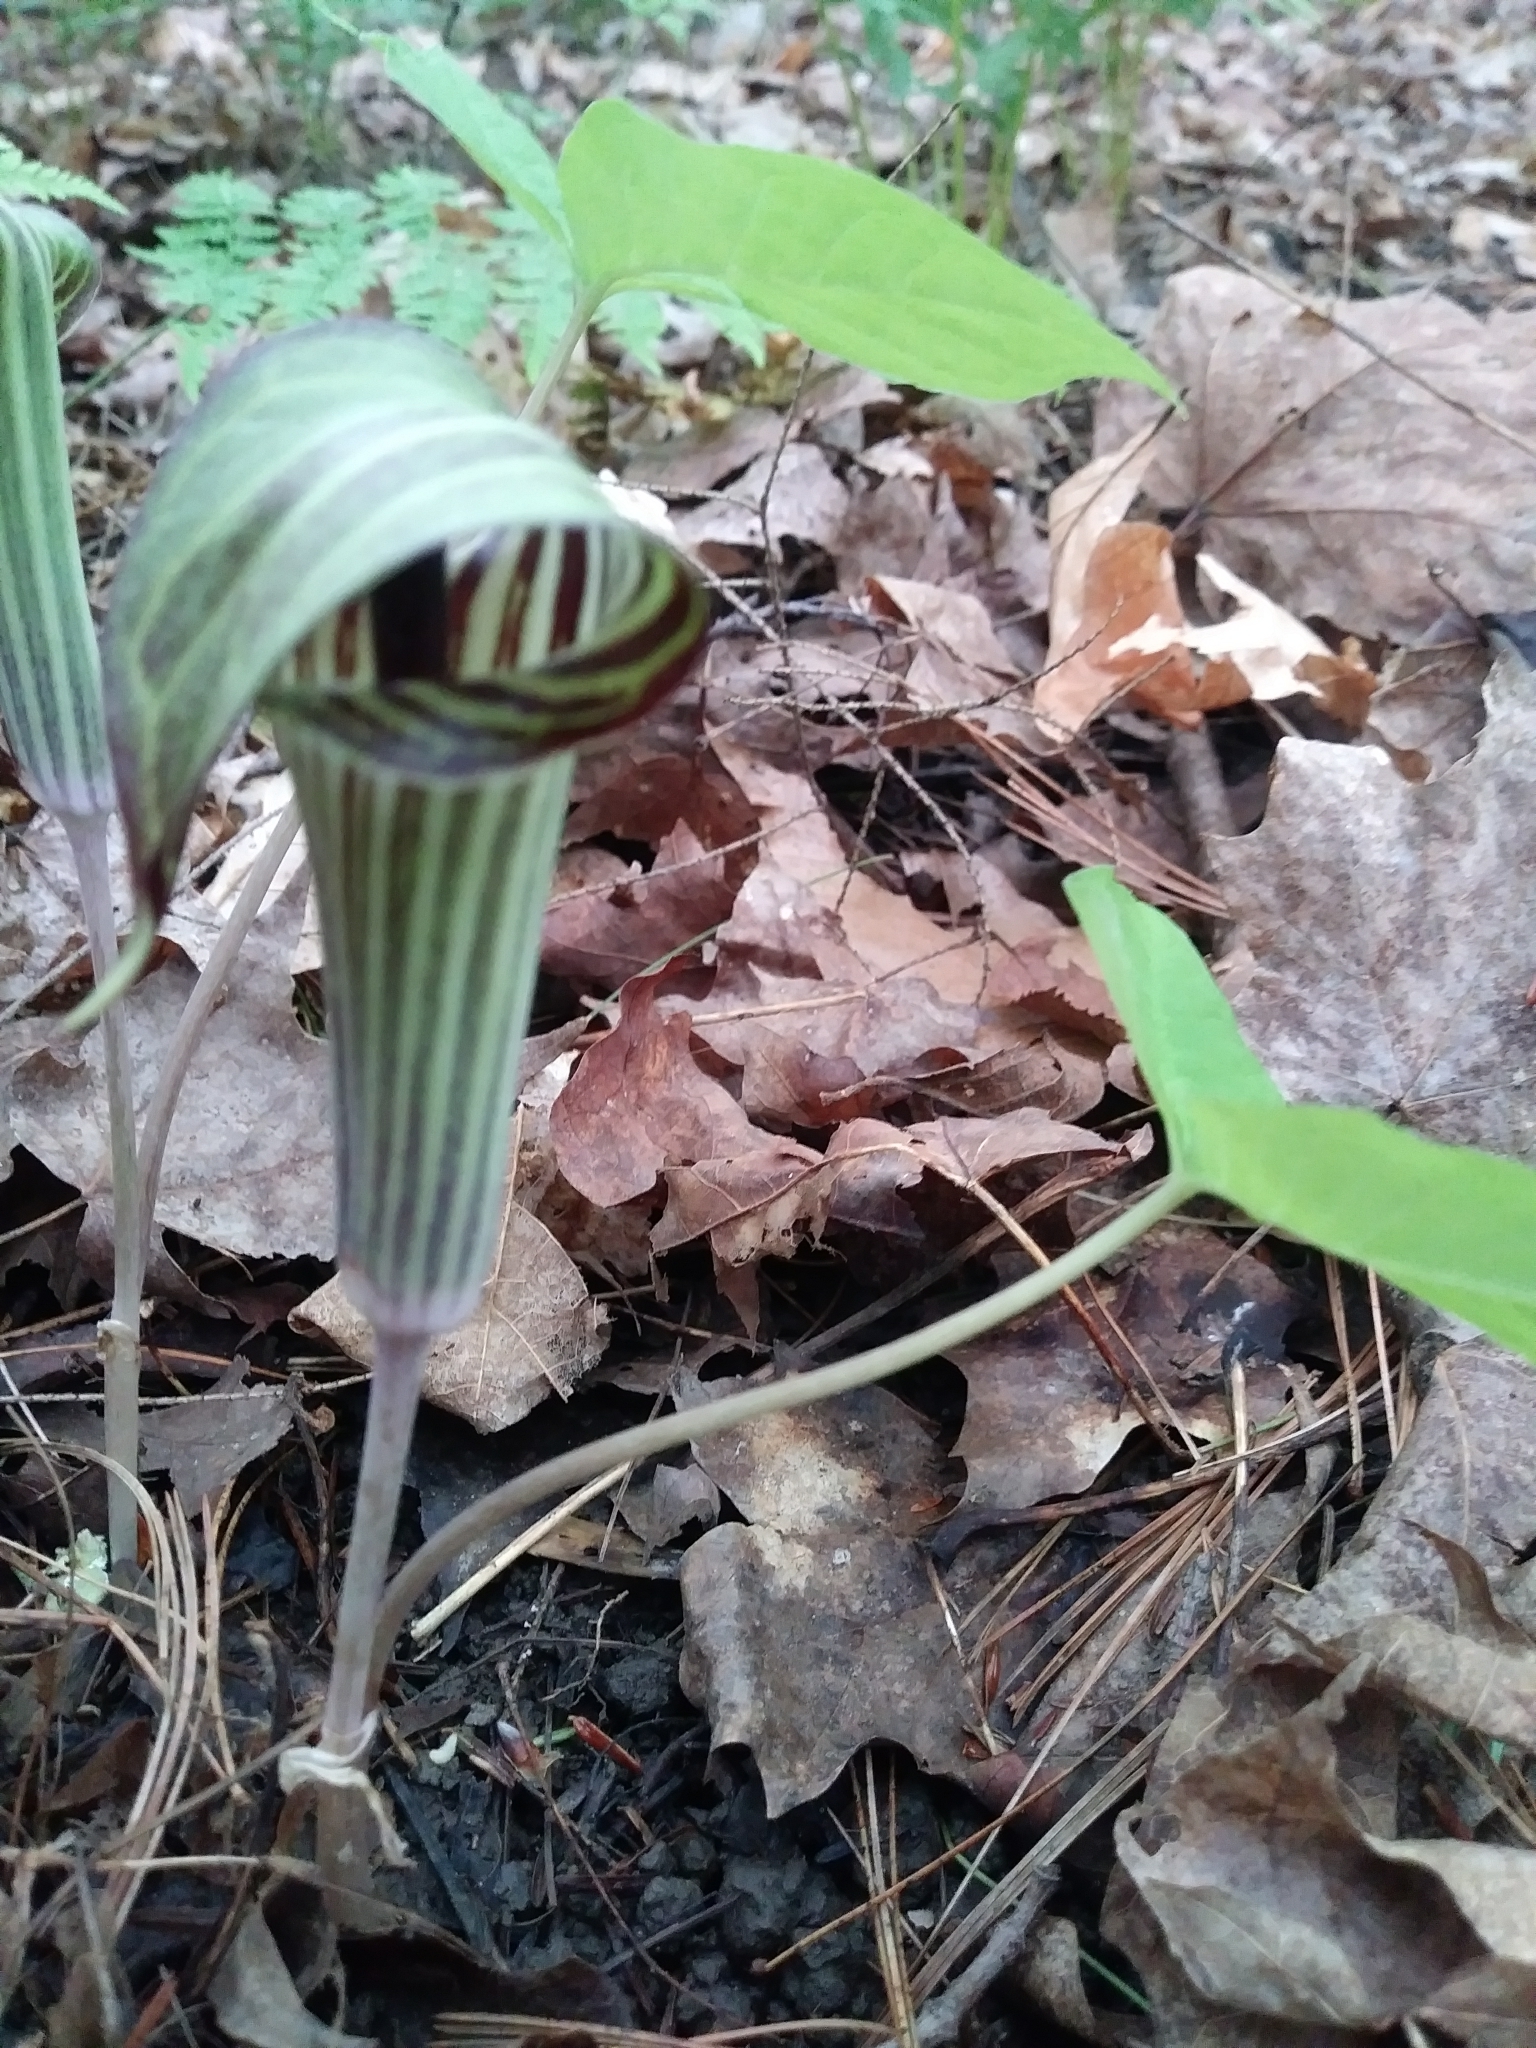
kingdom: Plantae
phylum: Tracheophyta
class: Liliopsida
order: Alismatales
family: Araceae
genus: Arisaema
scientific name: Arisaema triphyllum
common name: Jack-in-the-pulpit
